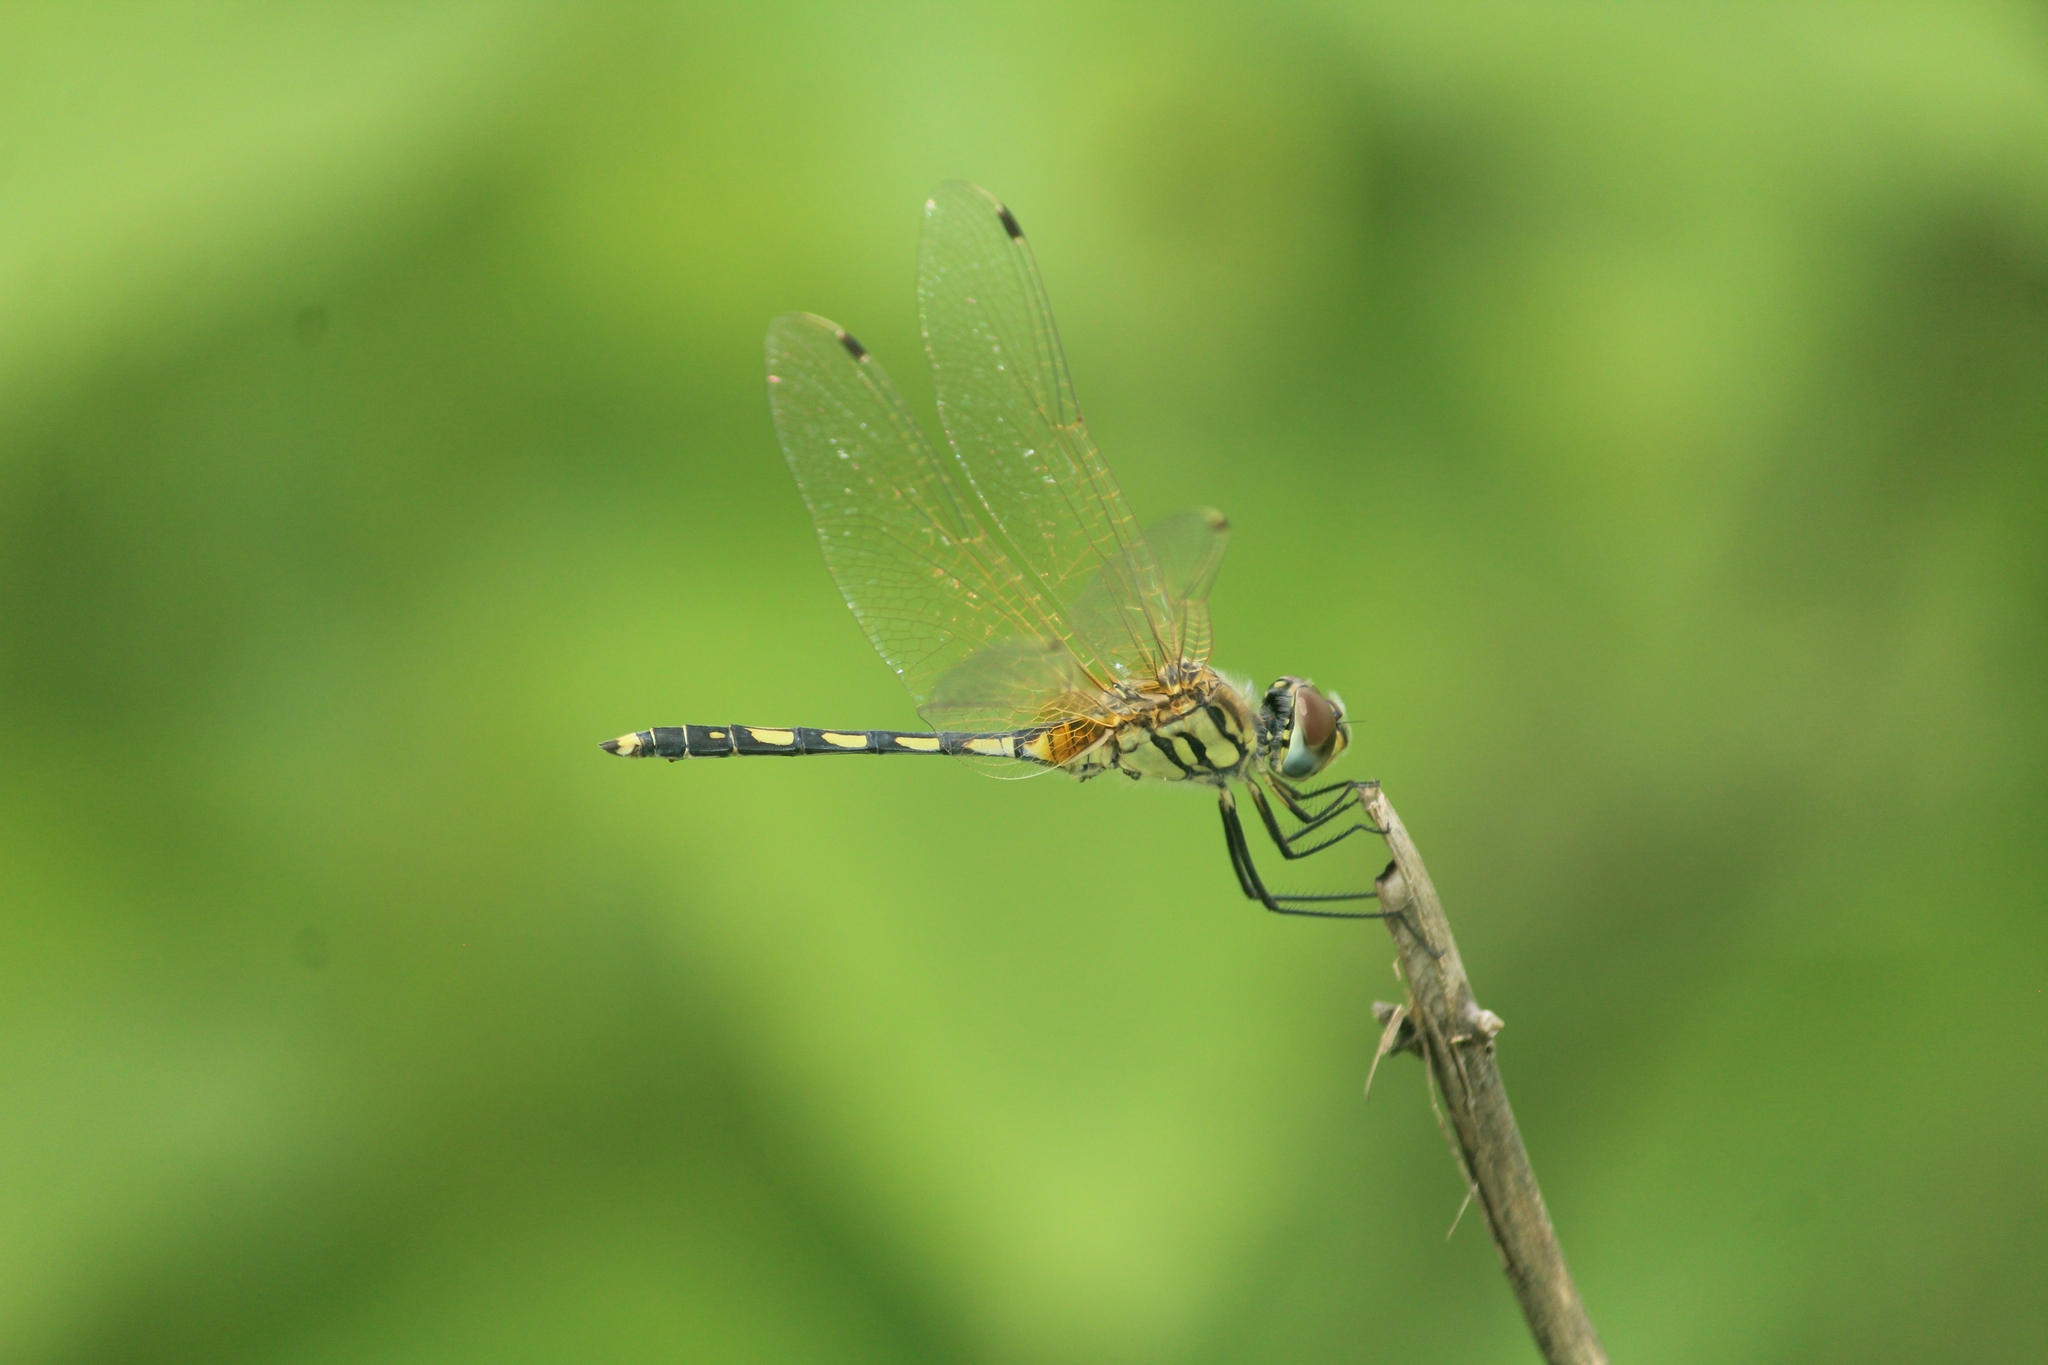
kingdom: Animalia
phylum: Arthropoda
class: Insecta
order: Odonata
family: Libellulidae
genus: Trithemis
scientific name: Trithemis pallidinervis
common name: Dancing dropwing
